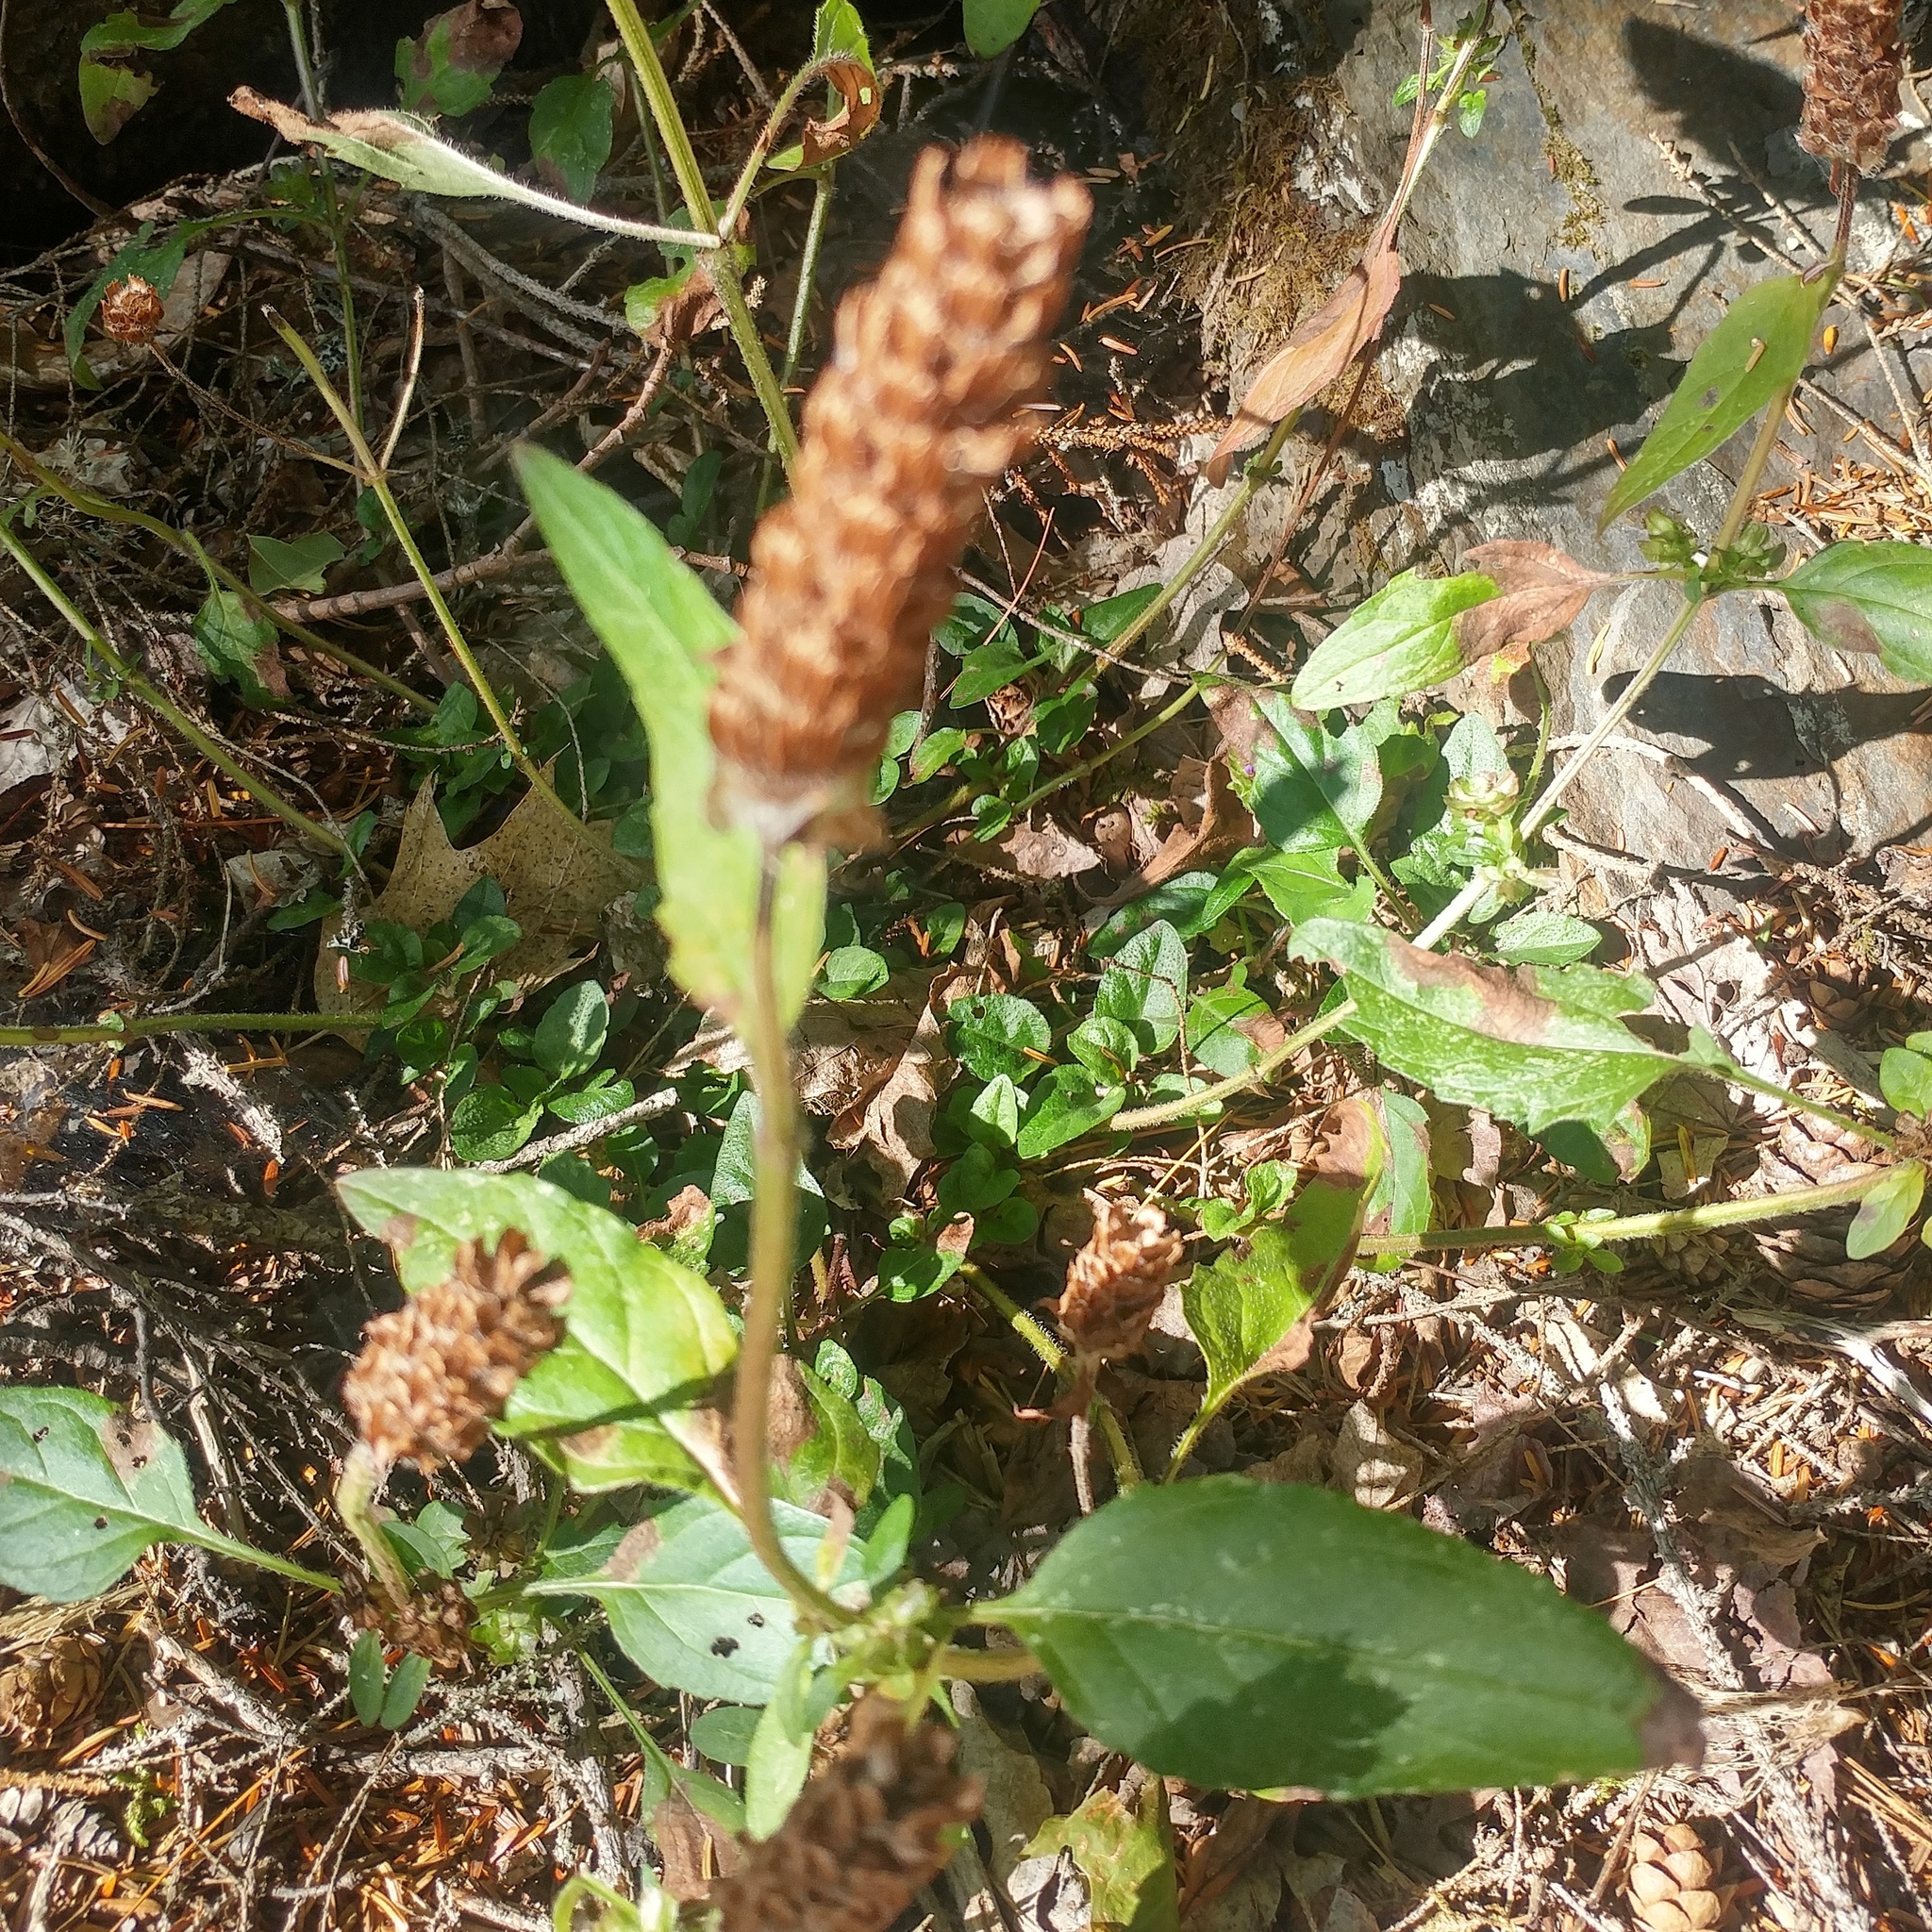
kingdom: Plantae
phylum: Tracheophyta
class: Magnoliopsida
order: Lamiales
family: Lamiaceae
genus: Prunella
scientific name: Prunella vulgaris
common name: Heal-all
